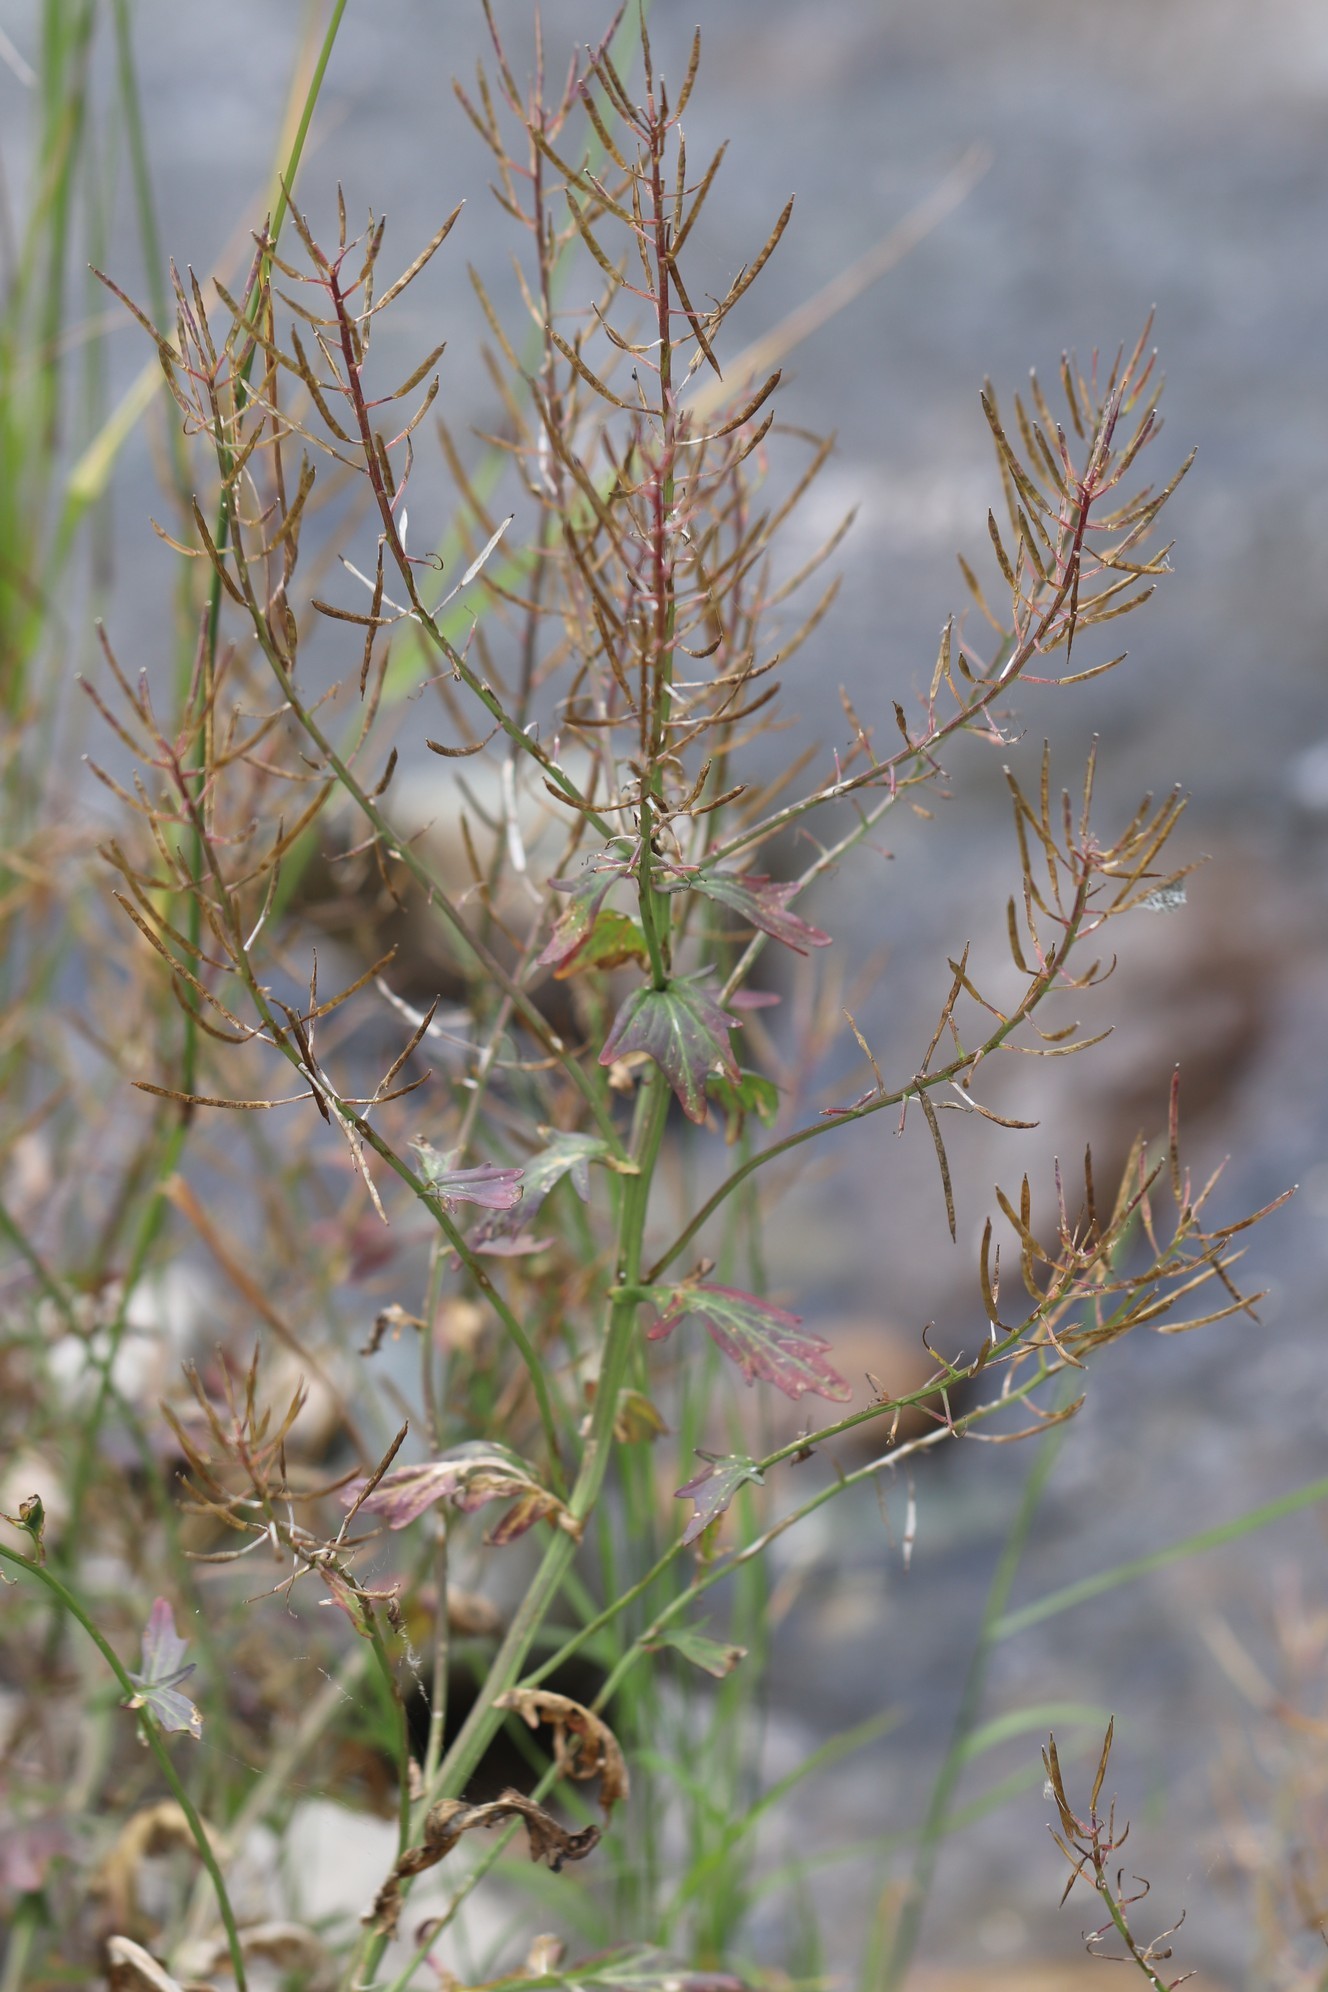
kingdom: Plantae
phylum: Tracheophyta
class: Magnoliopsida
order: Brassicales
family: Brassicaceae
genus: Rorippa
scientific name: Rorippa palustris
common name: Marsh yellow-cress
